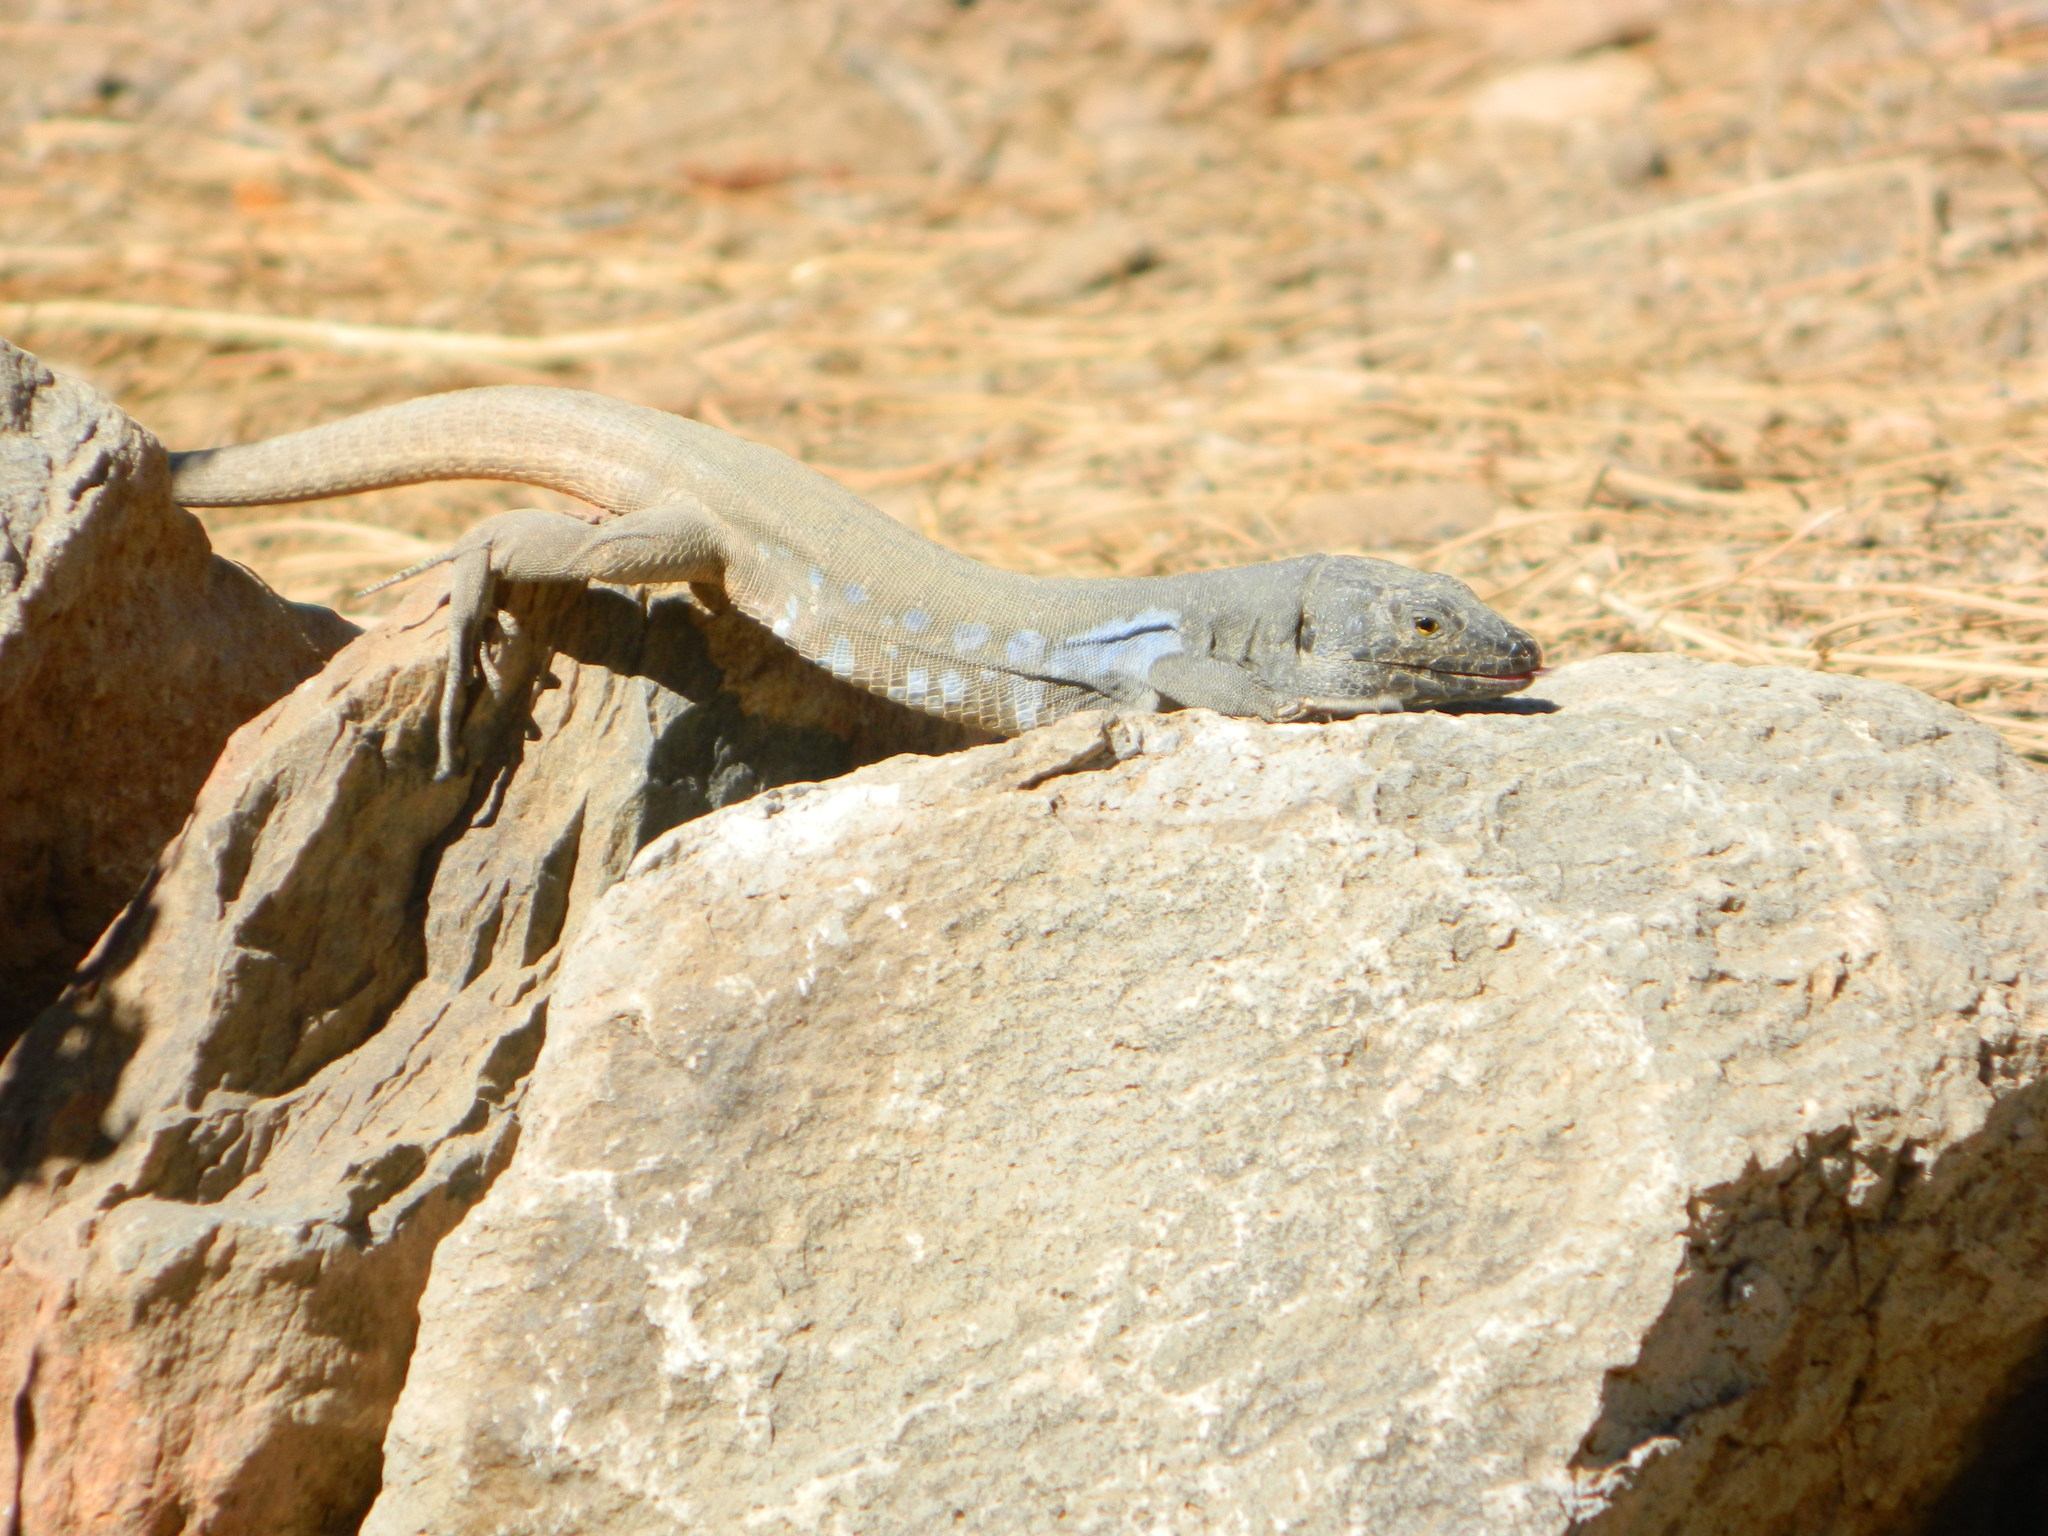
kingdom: Animalia
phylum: Chordata
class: Squamata
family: Lacertidae
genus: Gallotia
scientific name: Gallotia galloti
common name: Gallot's lizard
